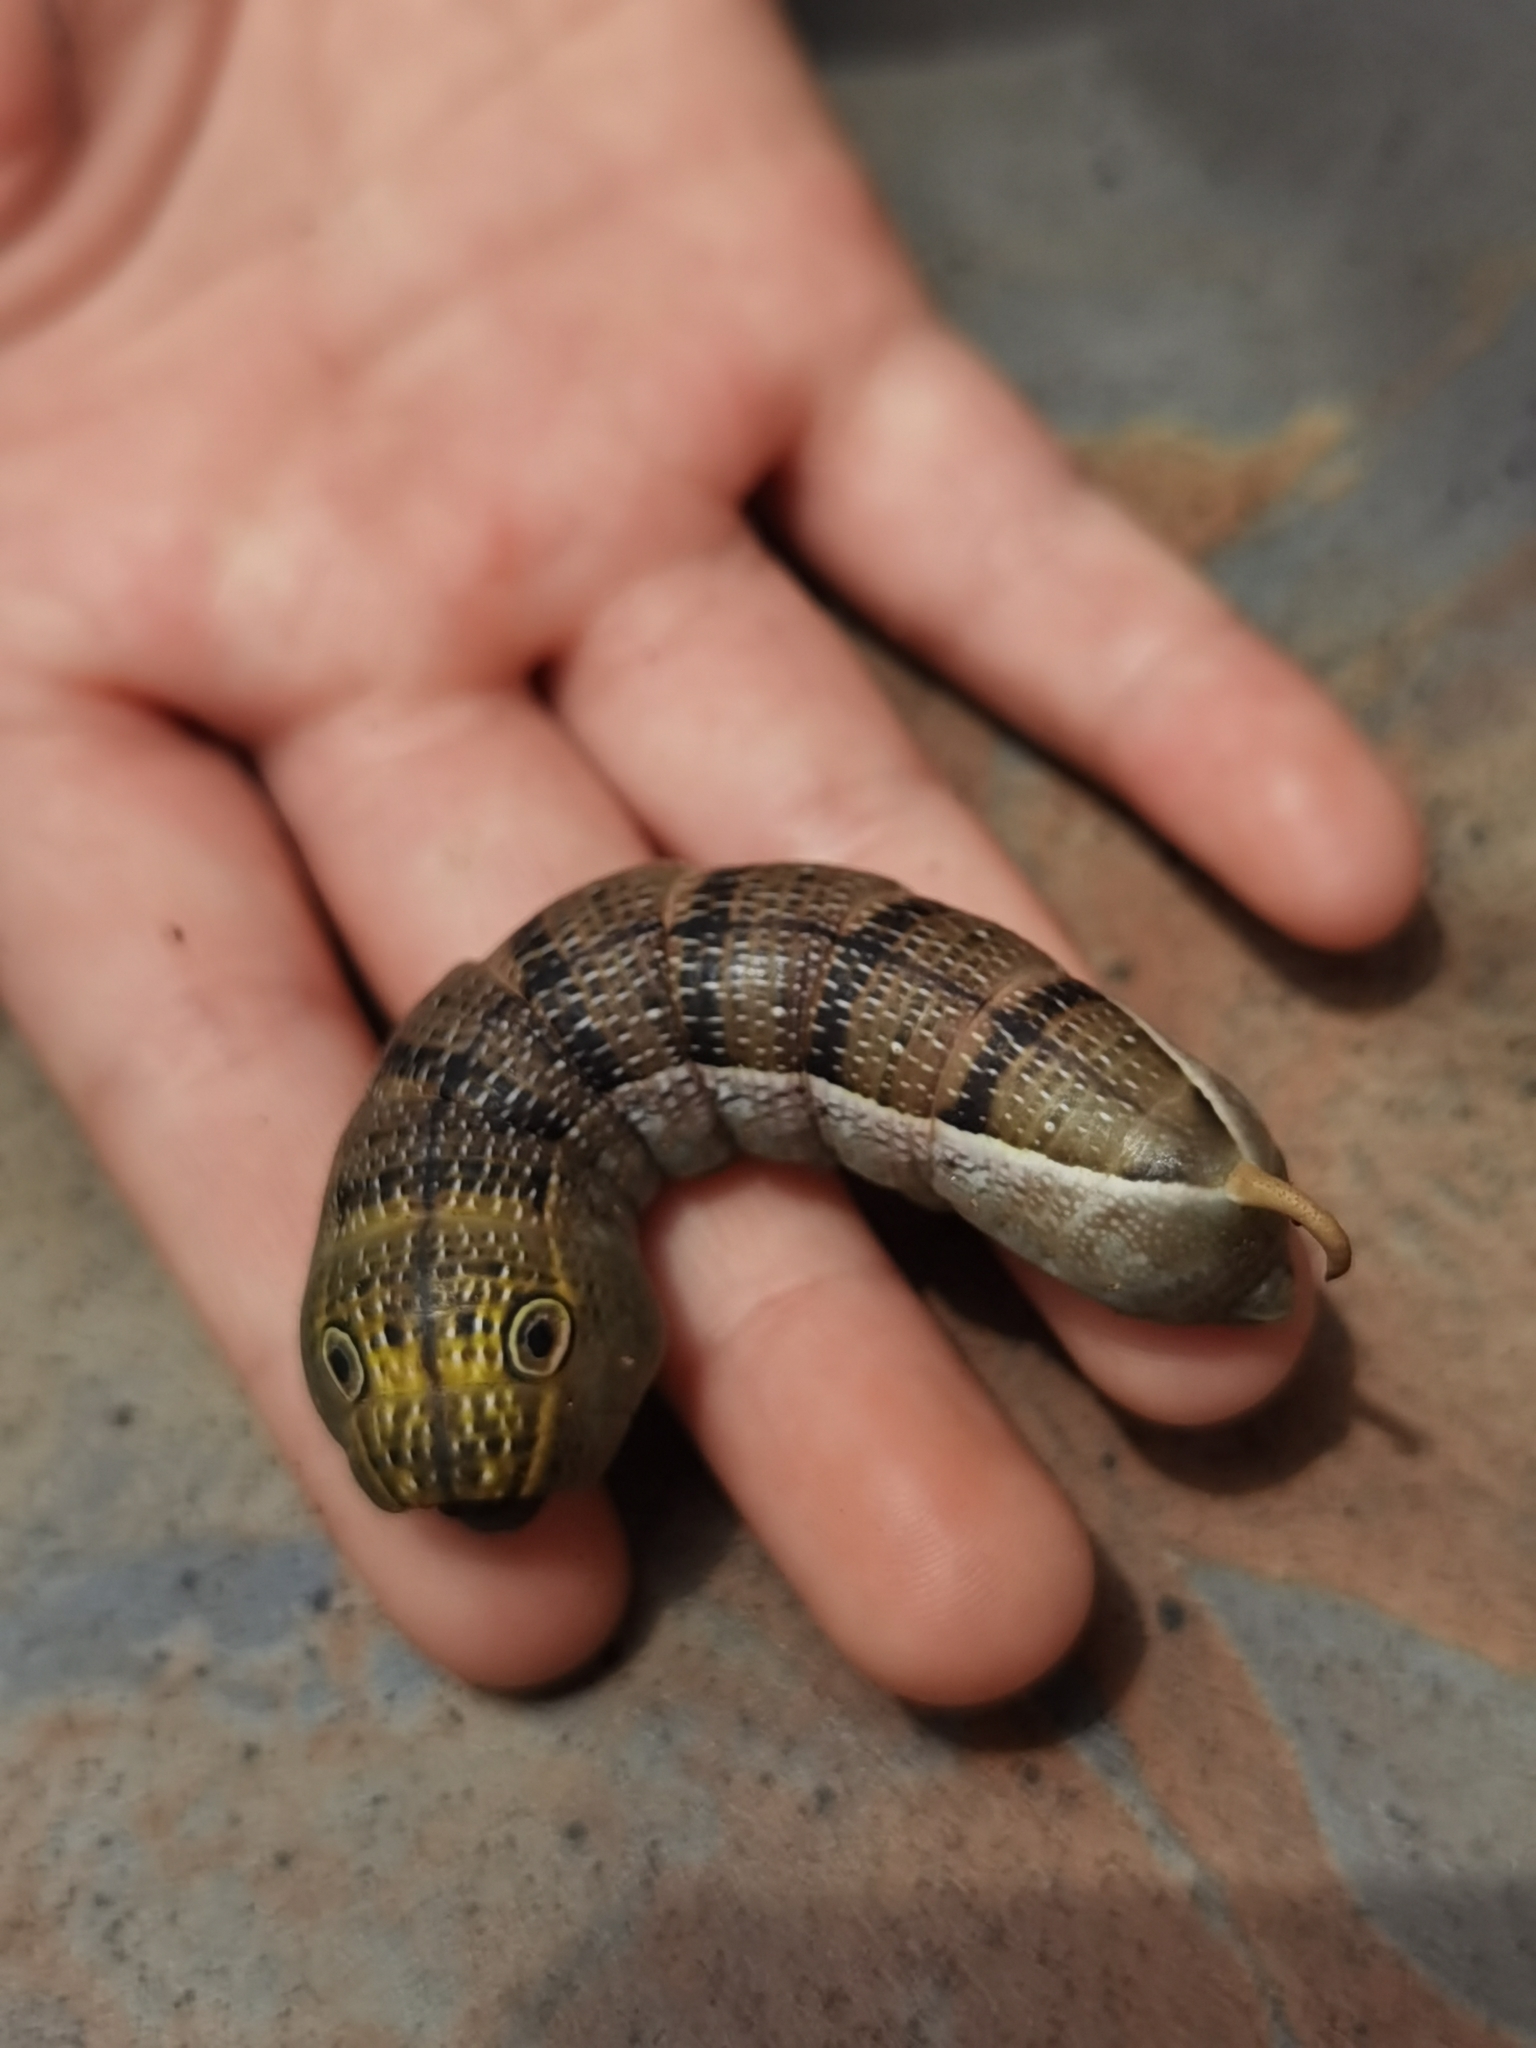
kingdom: Animalia
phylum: Arthropoda
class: Insecta
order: Lepidoptera
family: Sphingidae
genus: Xylophanes
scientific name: Xylophanes pluto
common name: Pluto sphinx
